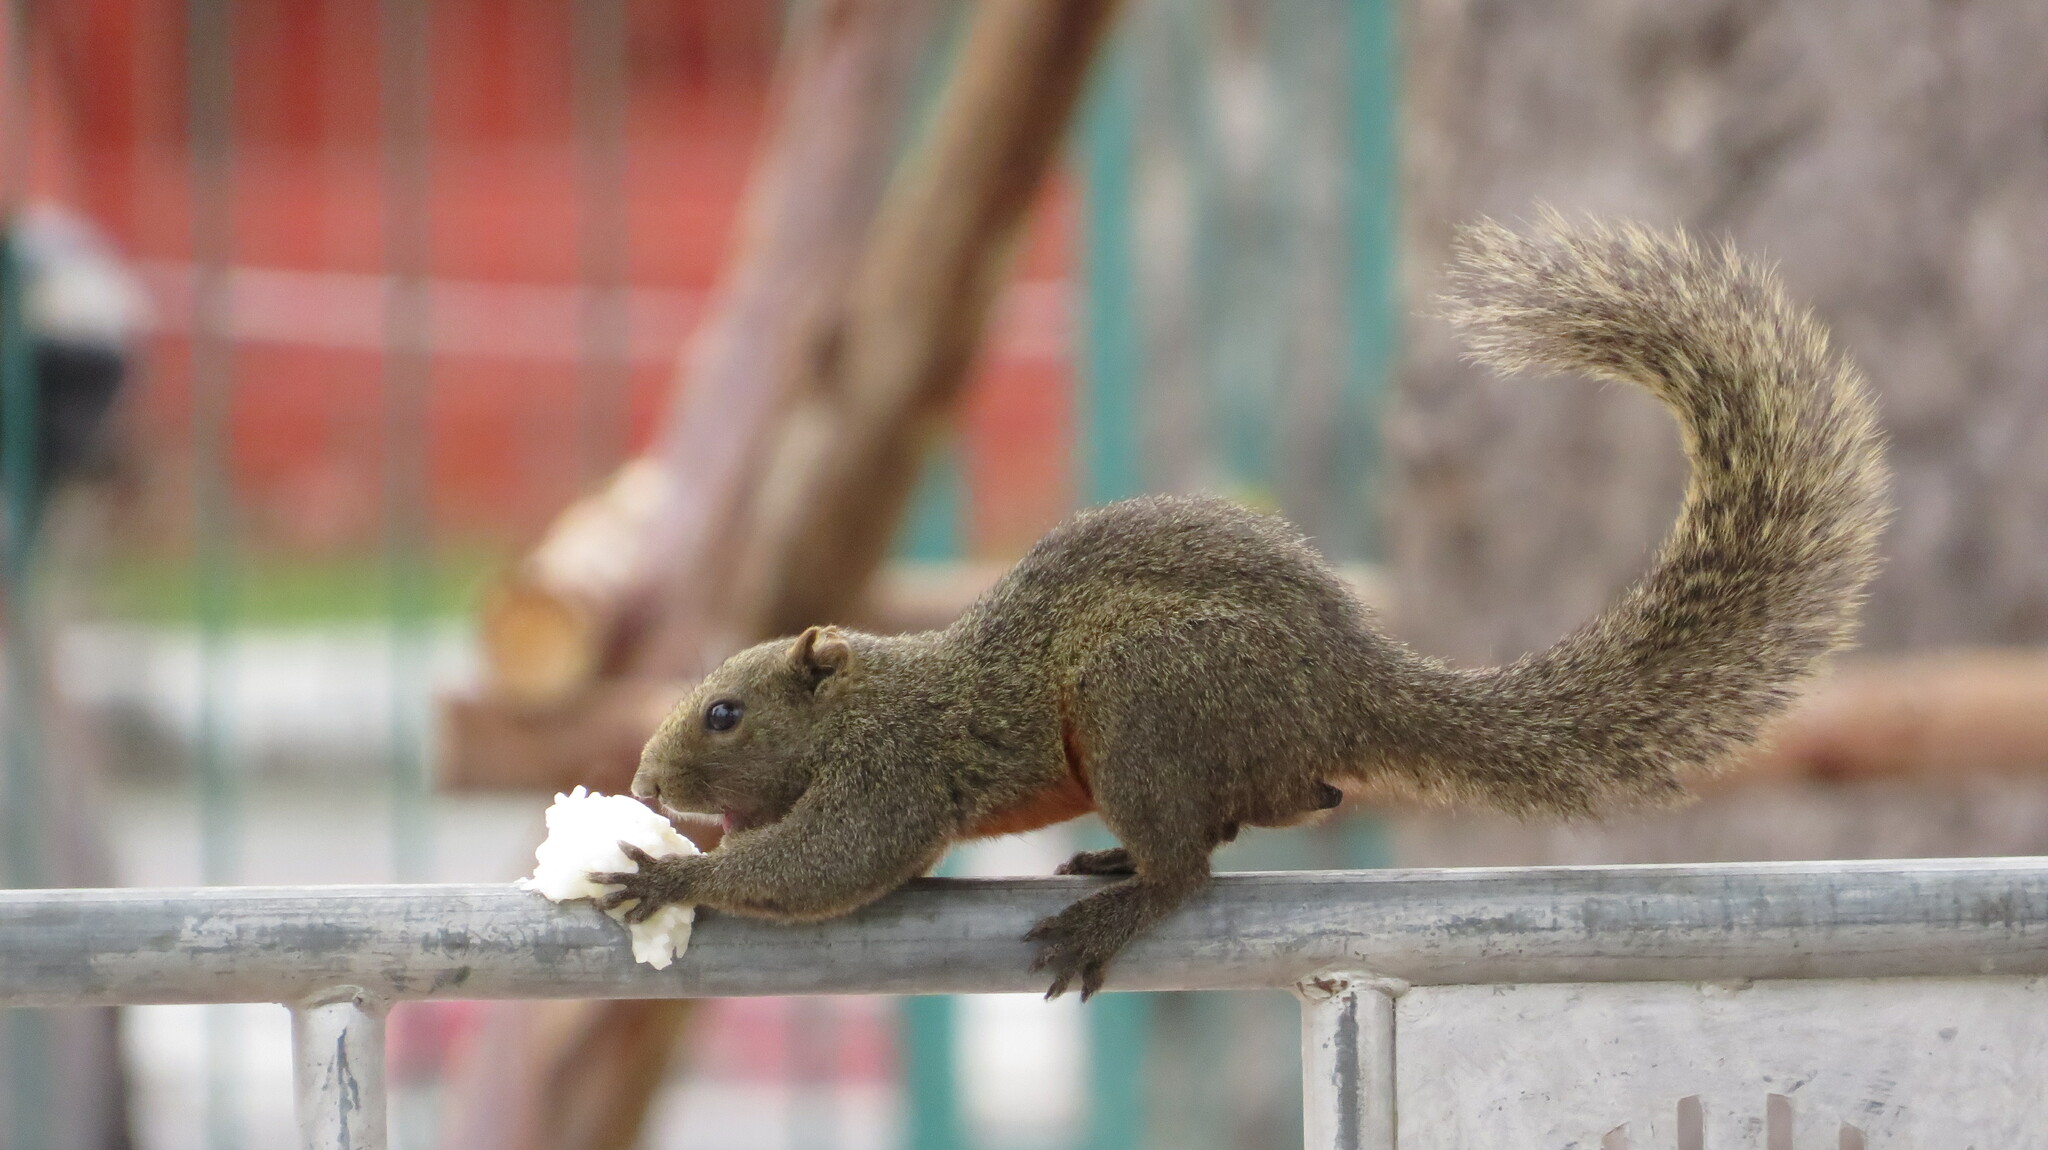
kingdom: Animalia
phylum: Chordata
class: Mammalia
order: Rodentia
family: Sciuridae
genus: Callosciurus
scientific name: Callosciurus erythraeus
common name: Pallas's squirrel
